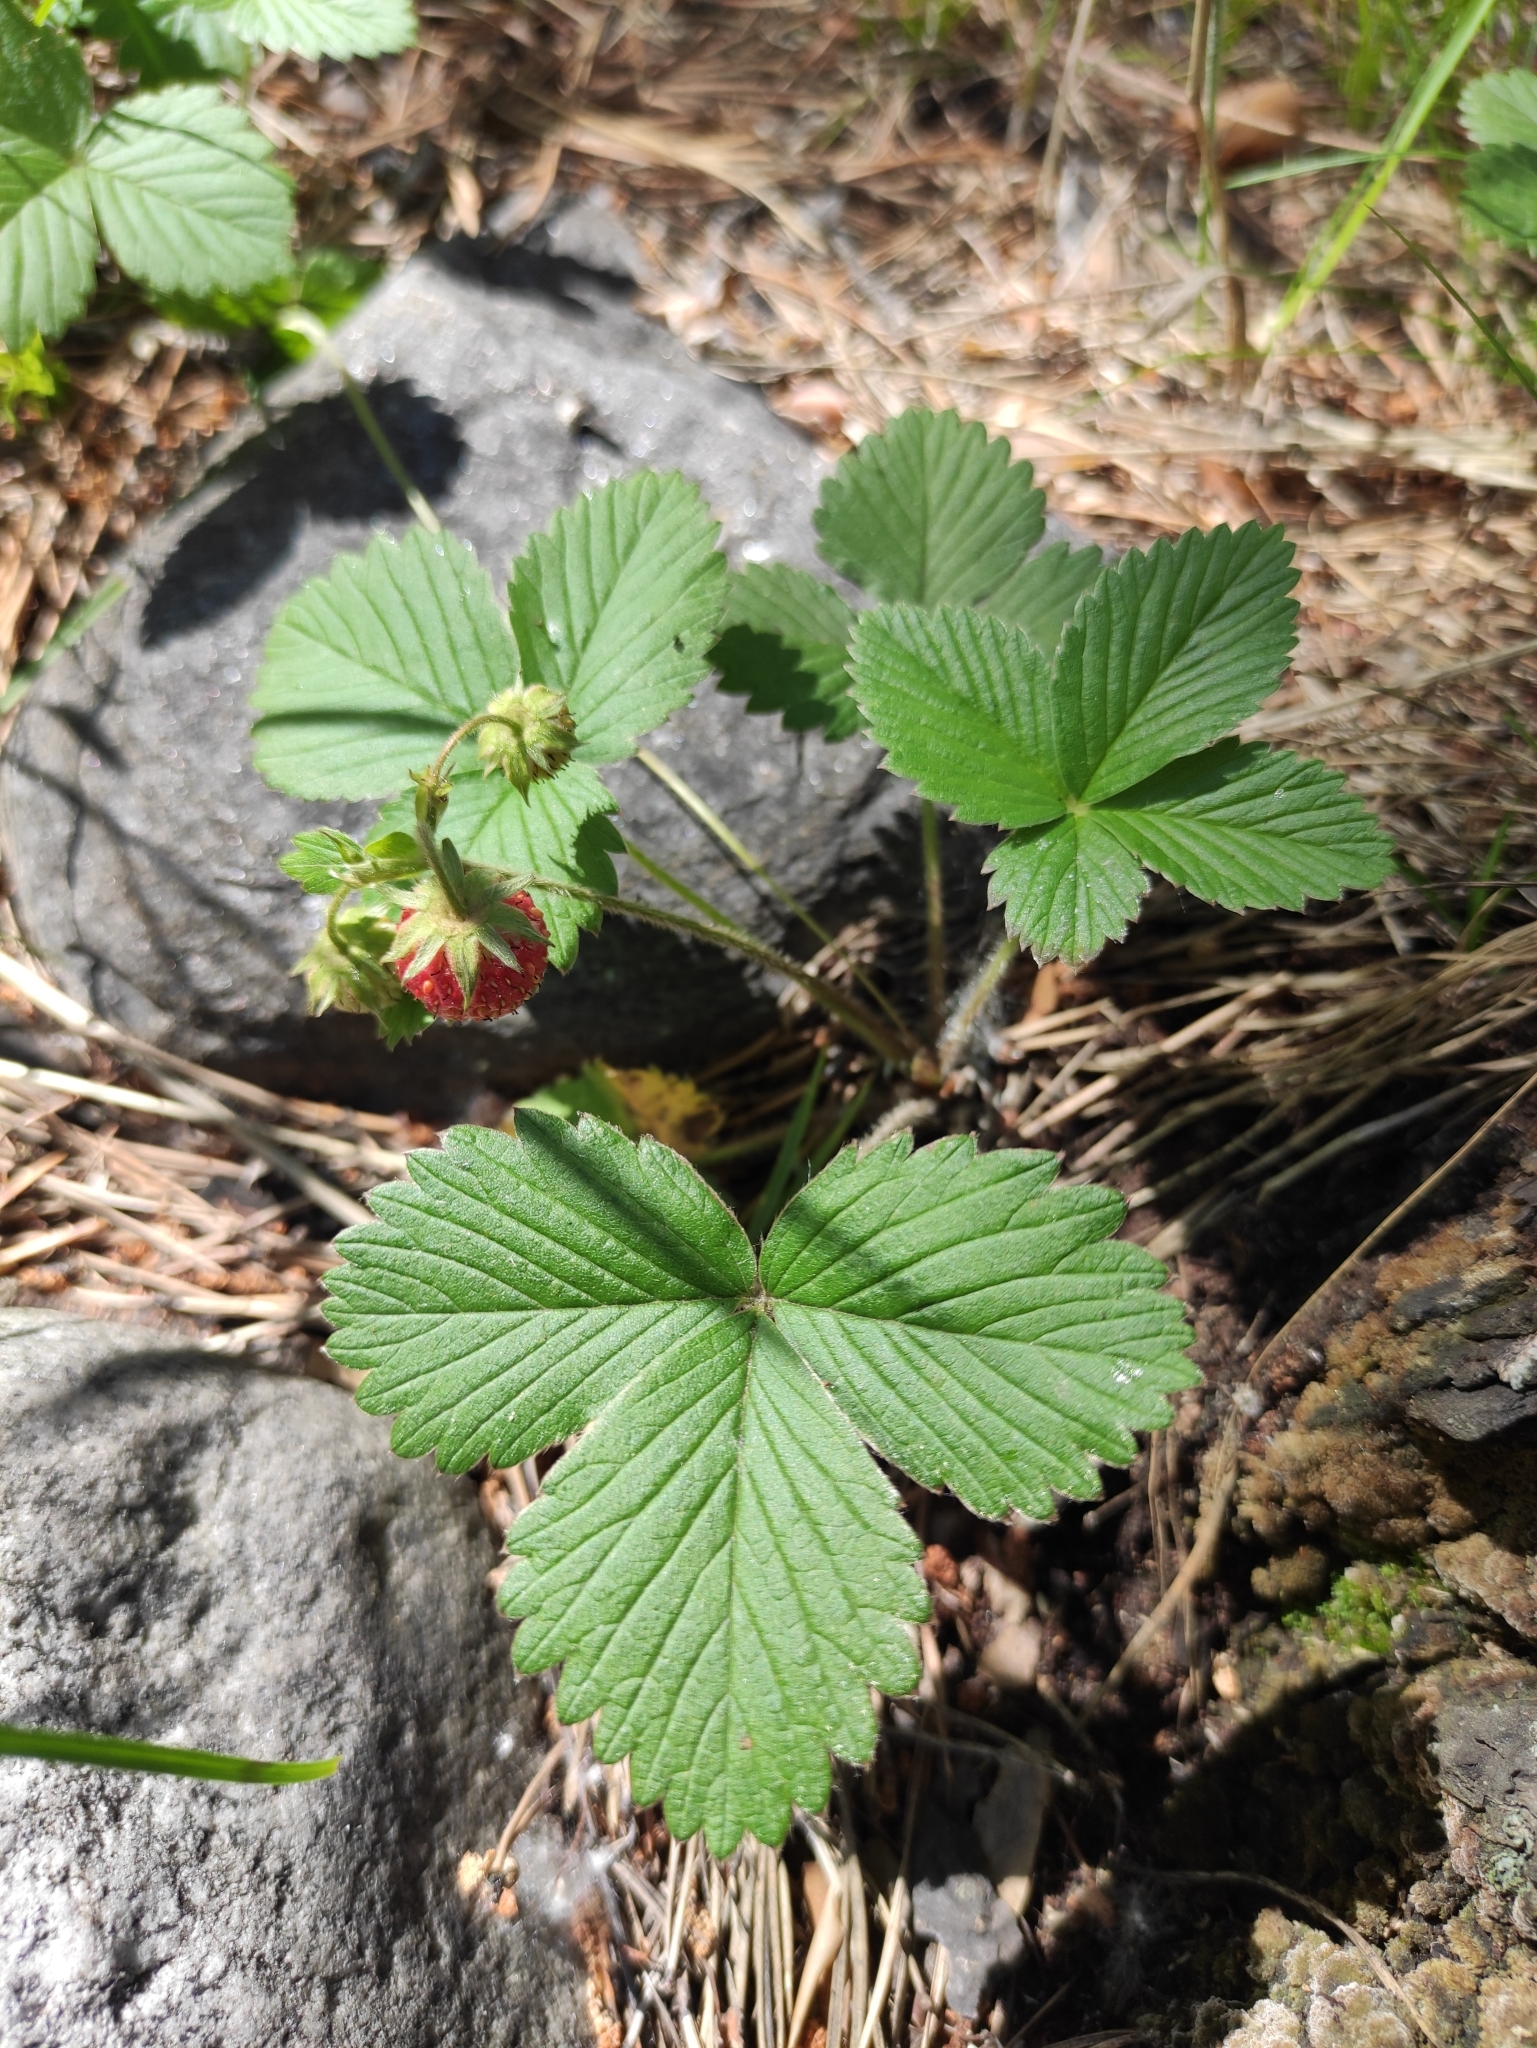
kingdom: Plantae
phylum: Tracheophyta
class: Magnoliopsida
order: Rosales
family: Rosaceae
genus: Fragaria
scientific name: Fragaria viridis
